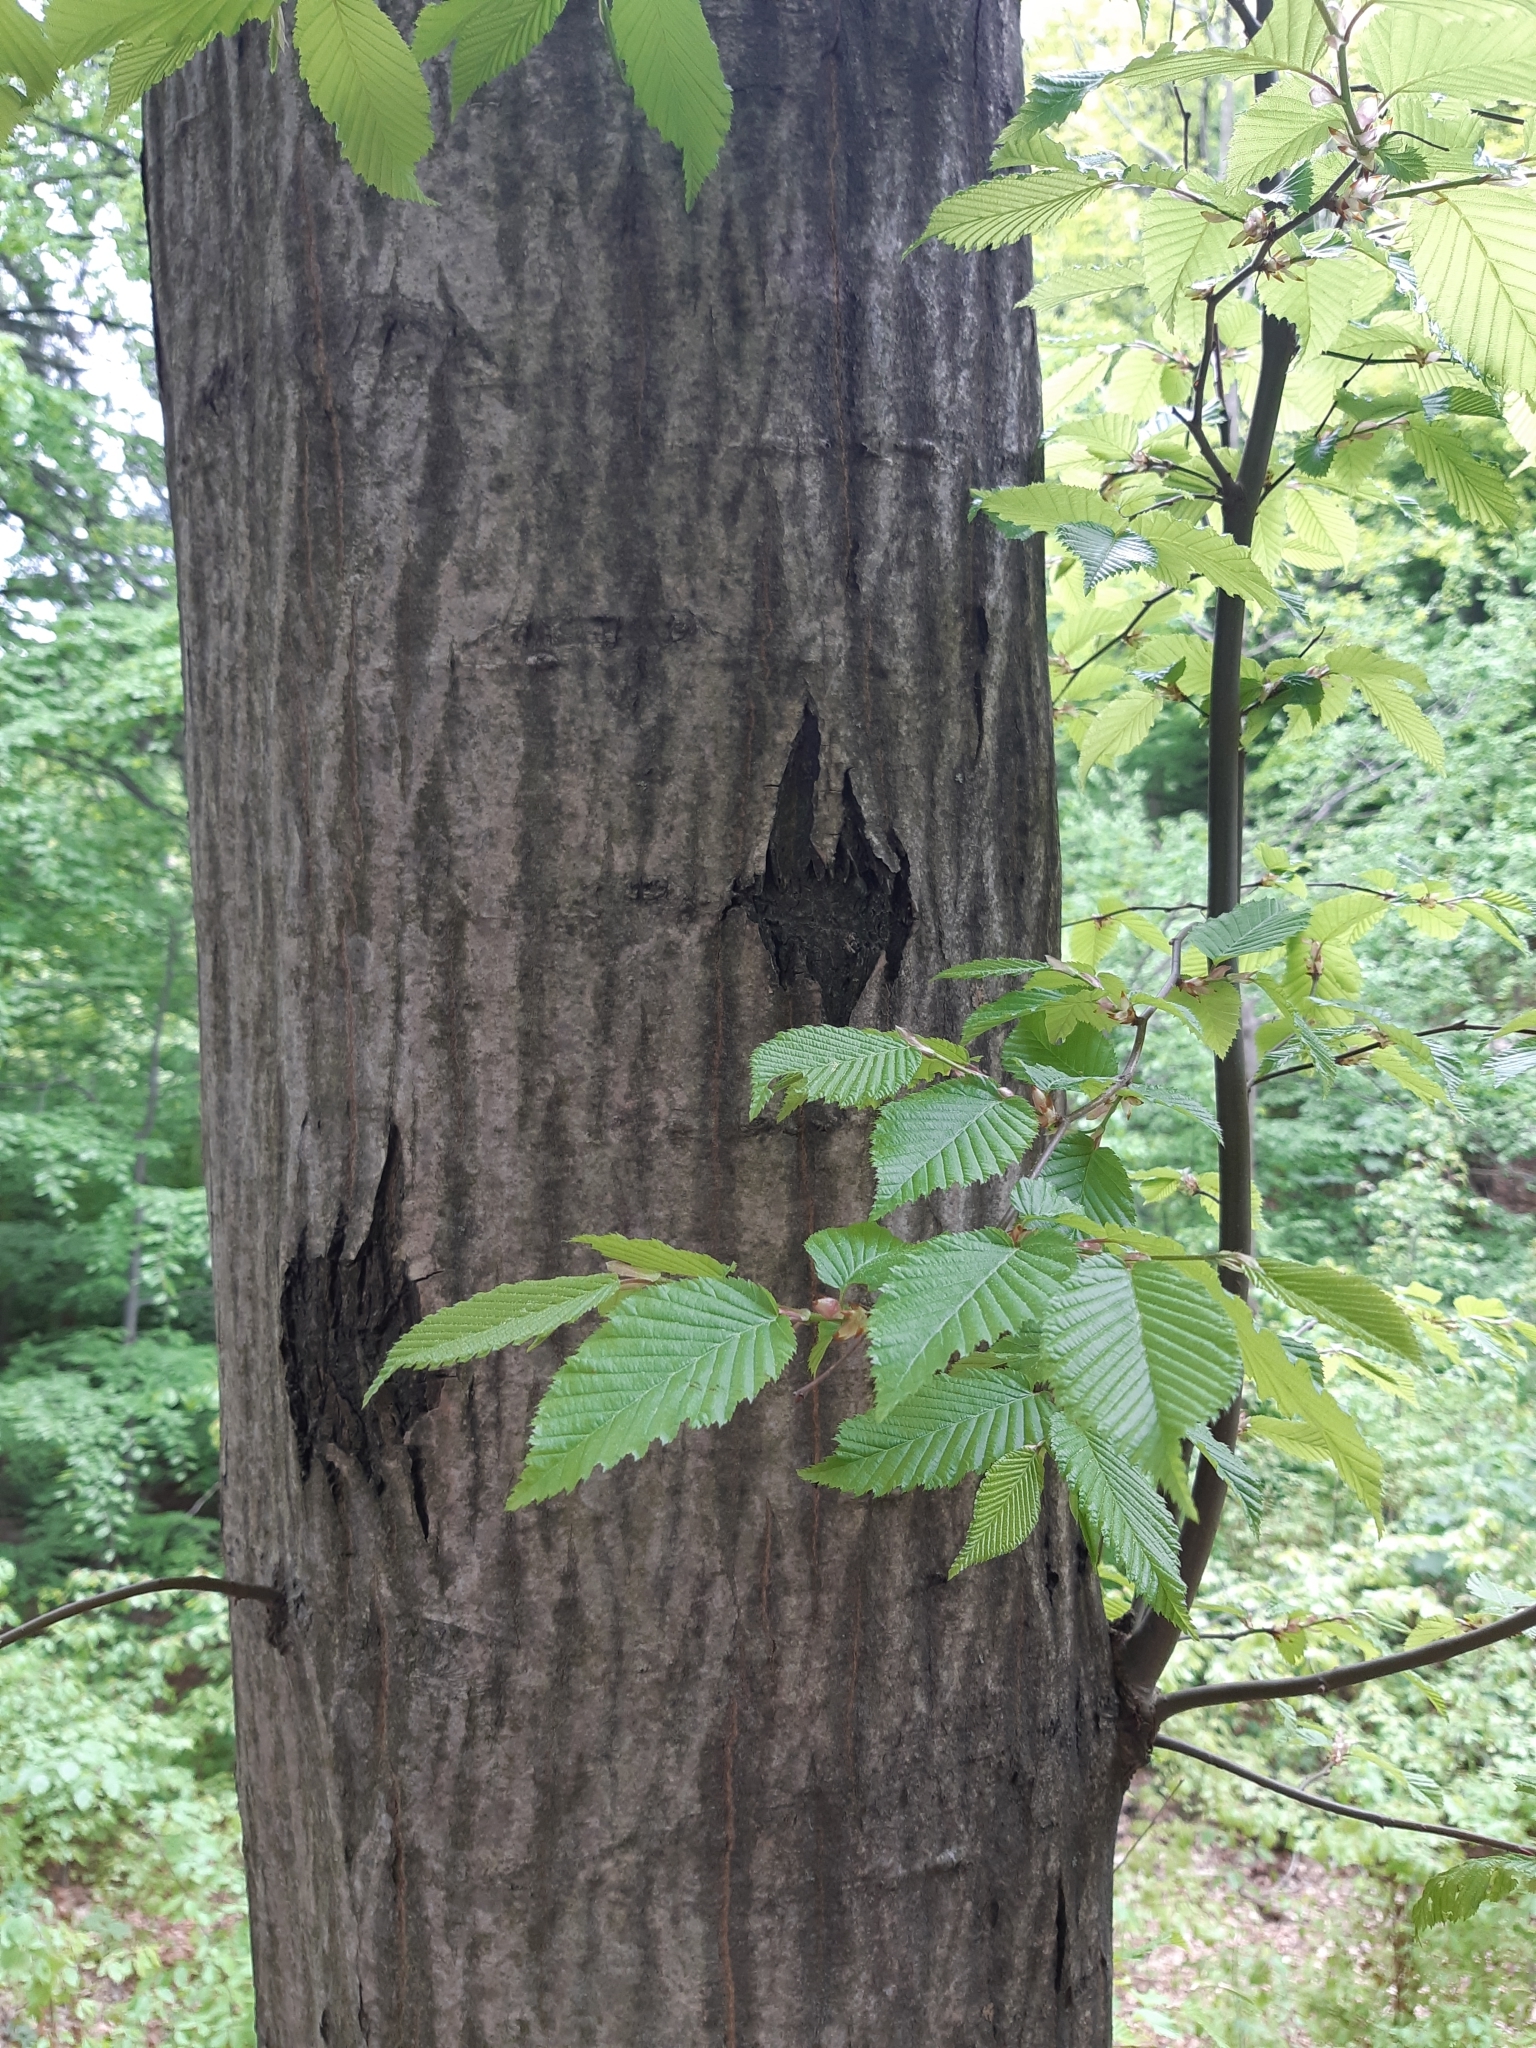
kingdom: Plantae
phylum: Tracheophyta
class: Magnoliopsida
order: Fagales
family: Betulaceae
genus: Carpinus
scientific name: Carpinus betulus
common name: Hornbeam
